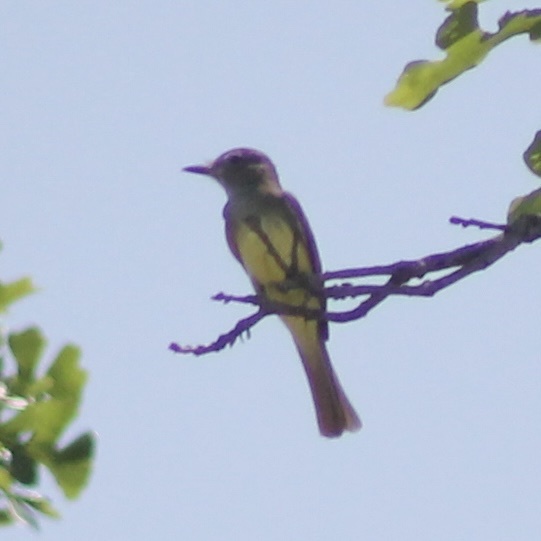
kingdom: Animalia
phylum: Chordata
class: Aves
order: Passeriformes
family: Tyrannidae
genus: Myiarchus
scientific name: Myiarchus crinitus
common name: Great crested flycatcher
